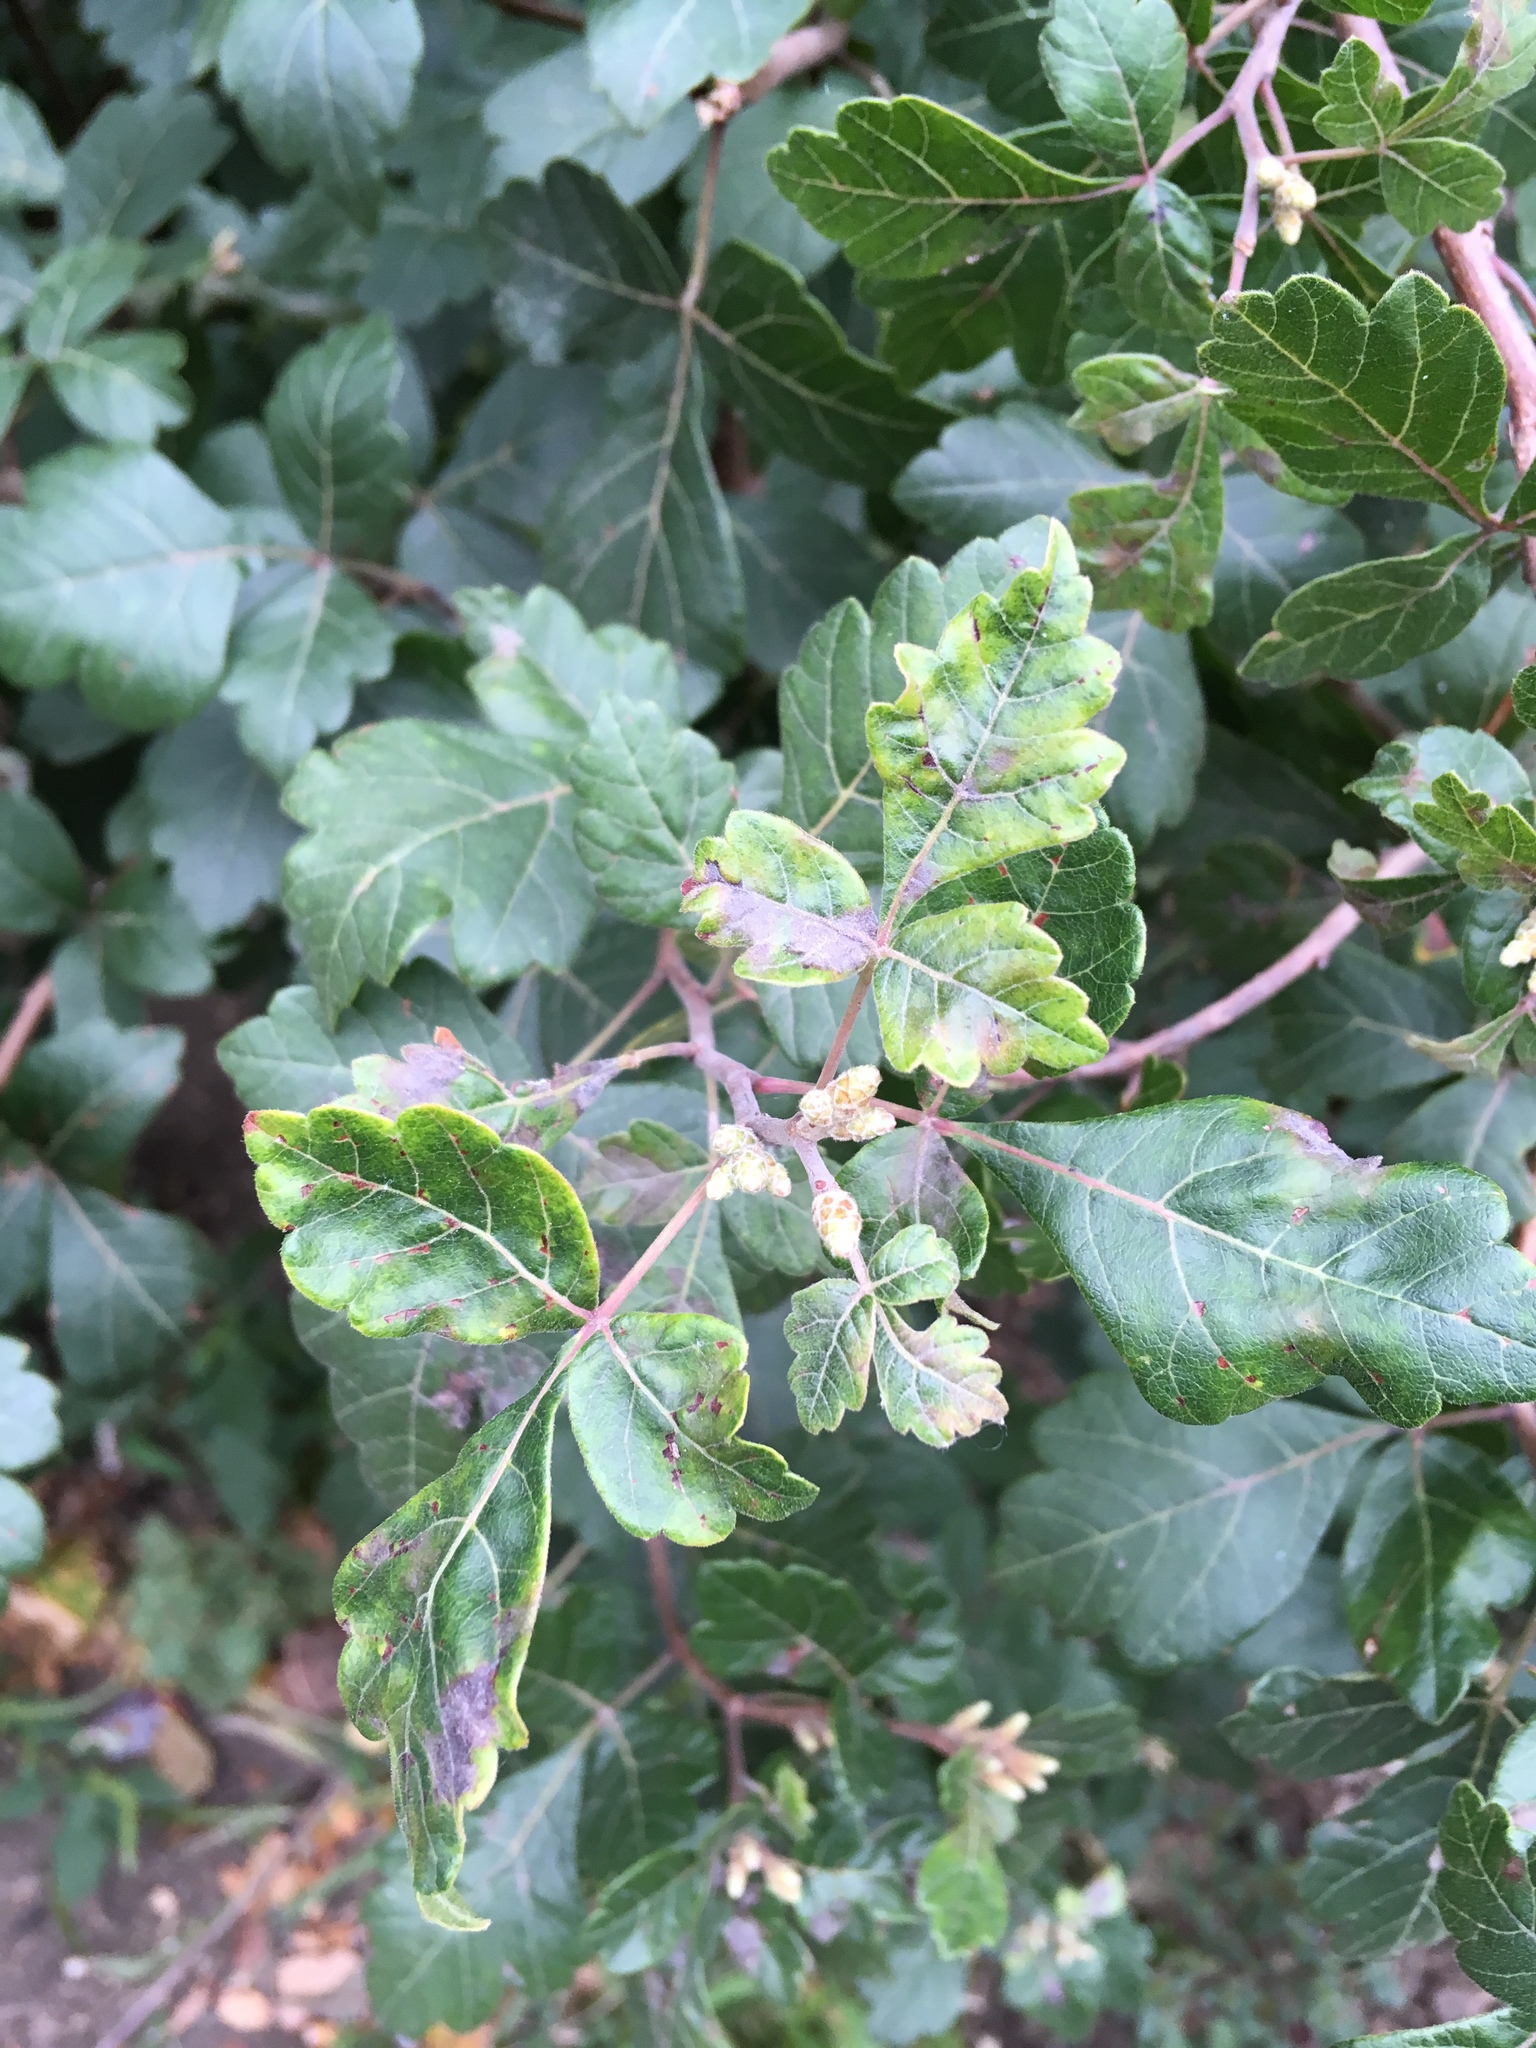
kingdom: Plantae
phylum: Tracheophyta
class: Magnoliopsida
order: Sapindales
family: Anacardiaceae
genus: Rhus
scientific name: Rhus aromatica
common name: Aromatic sumac
